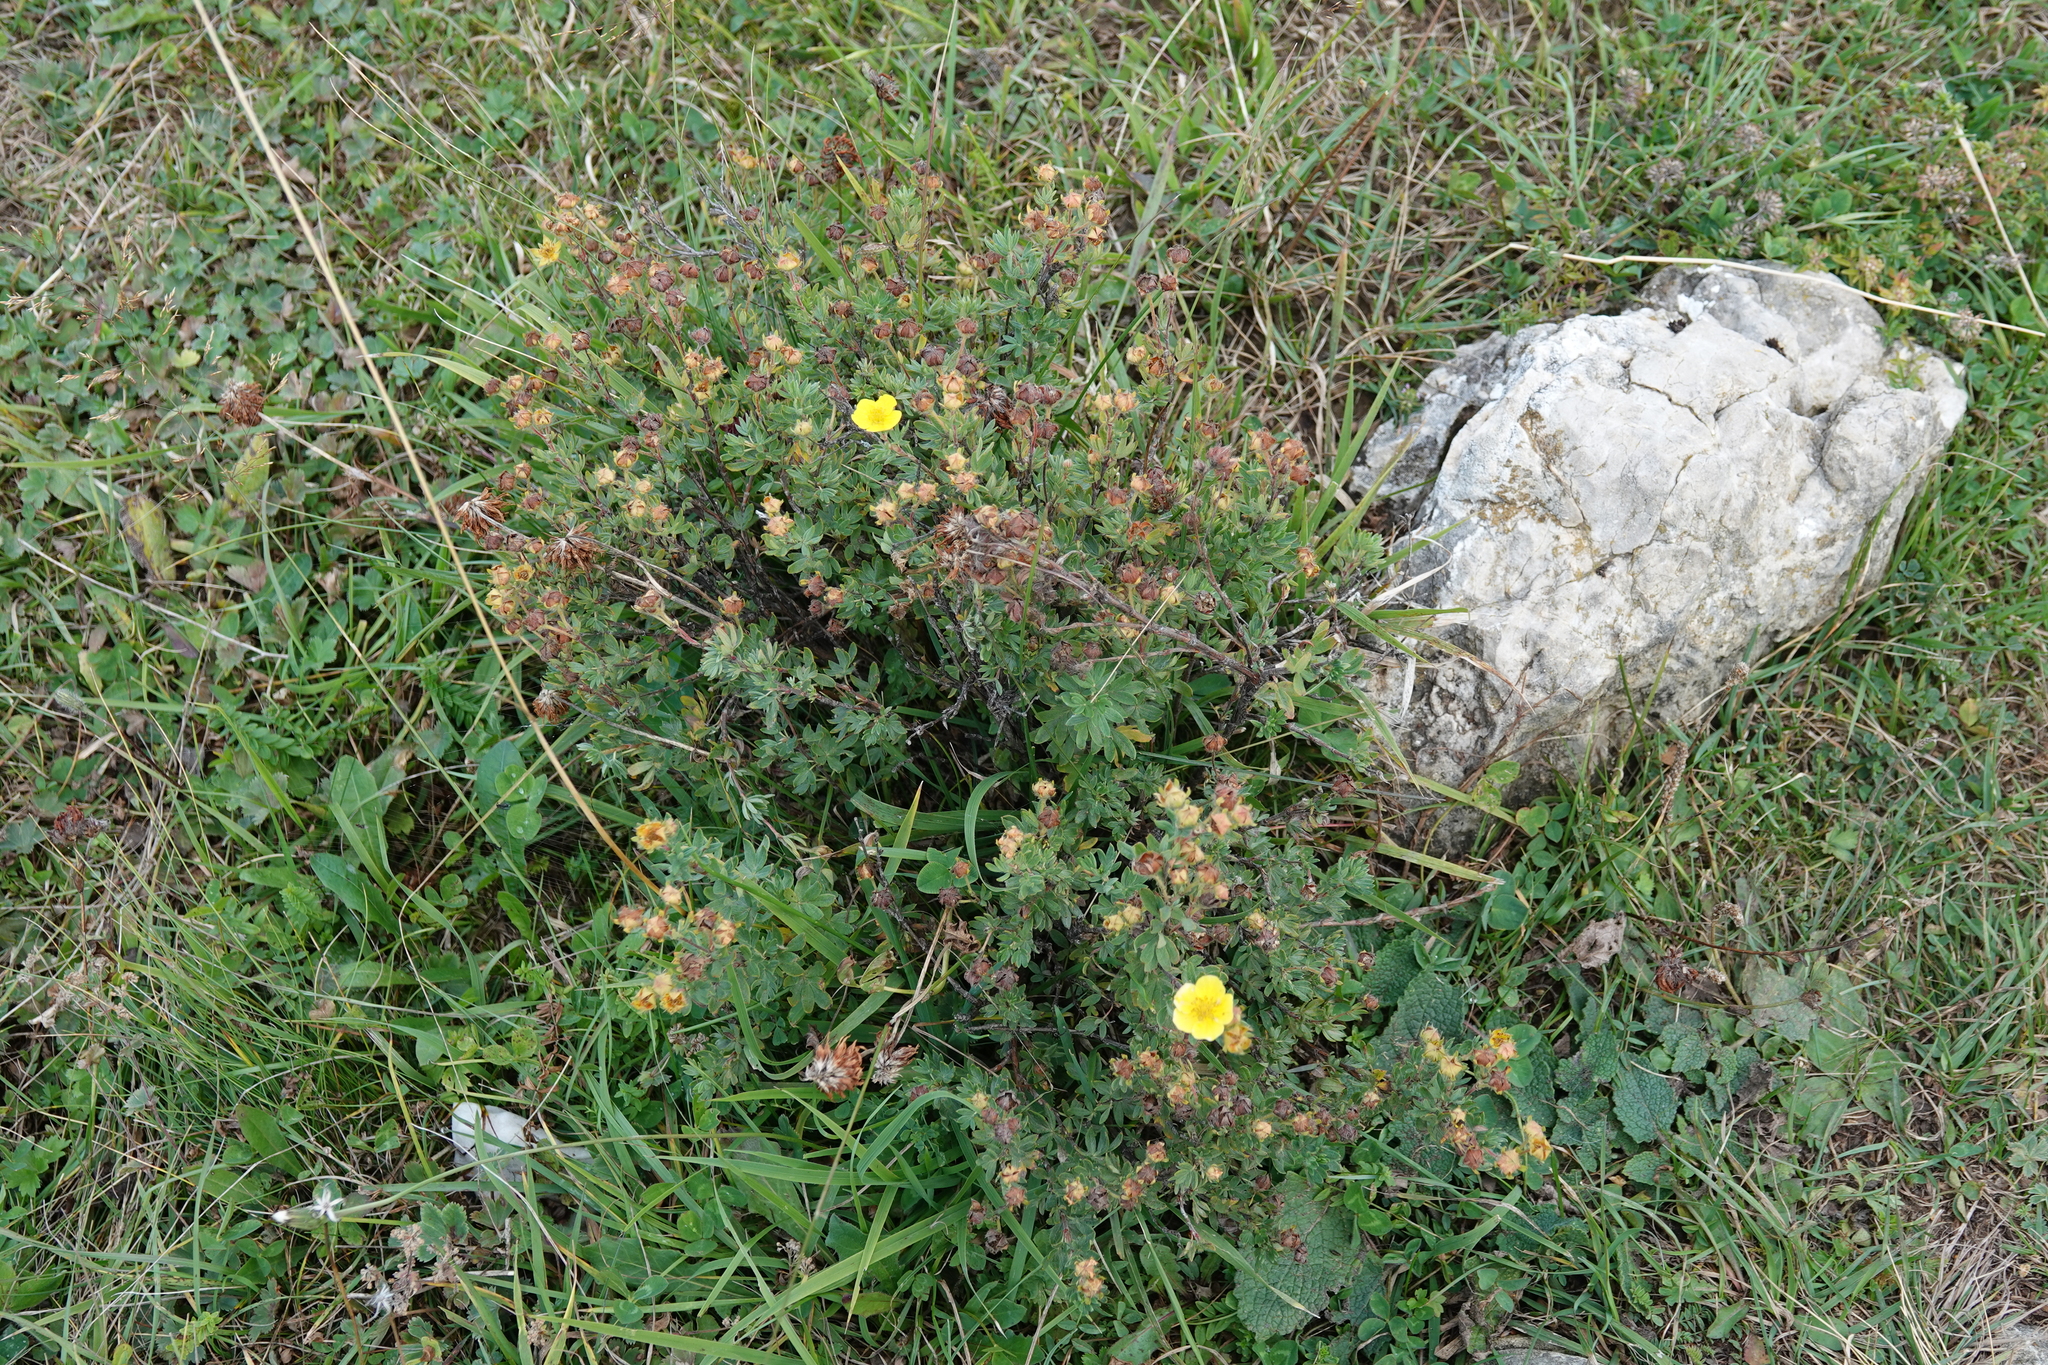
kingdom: Plantae
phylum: Tracheophyta
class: Magnoliopsida
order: Rosales
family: Rosaceae
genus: Dasiphora
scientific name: Dasiphora fruticosa
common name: Shrubby cinquefoil
